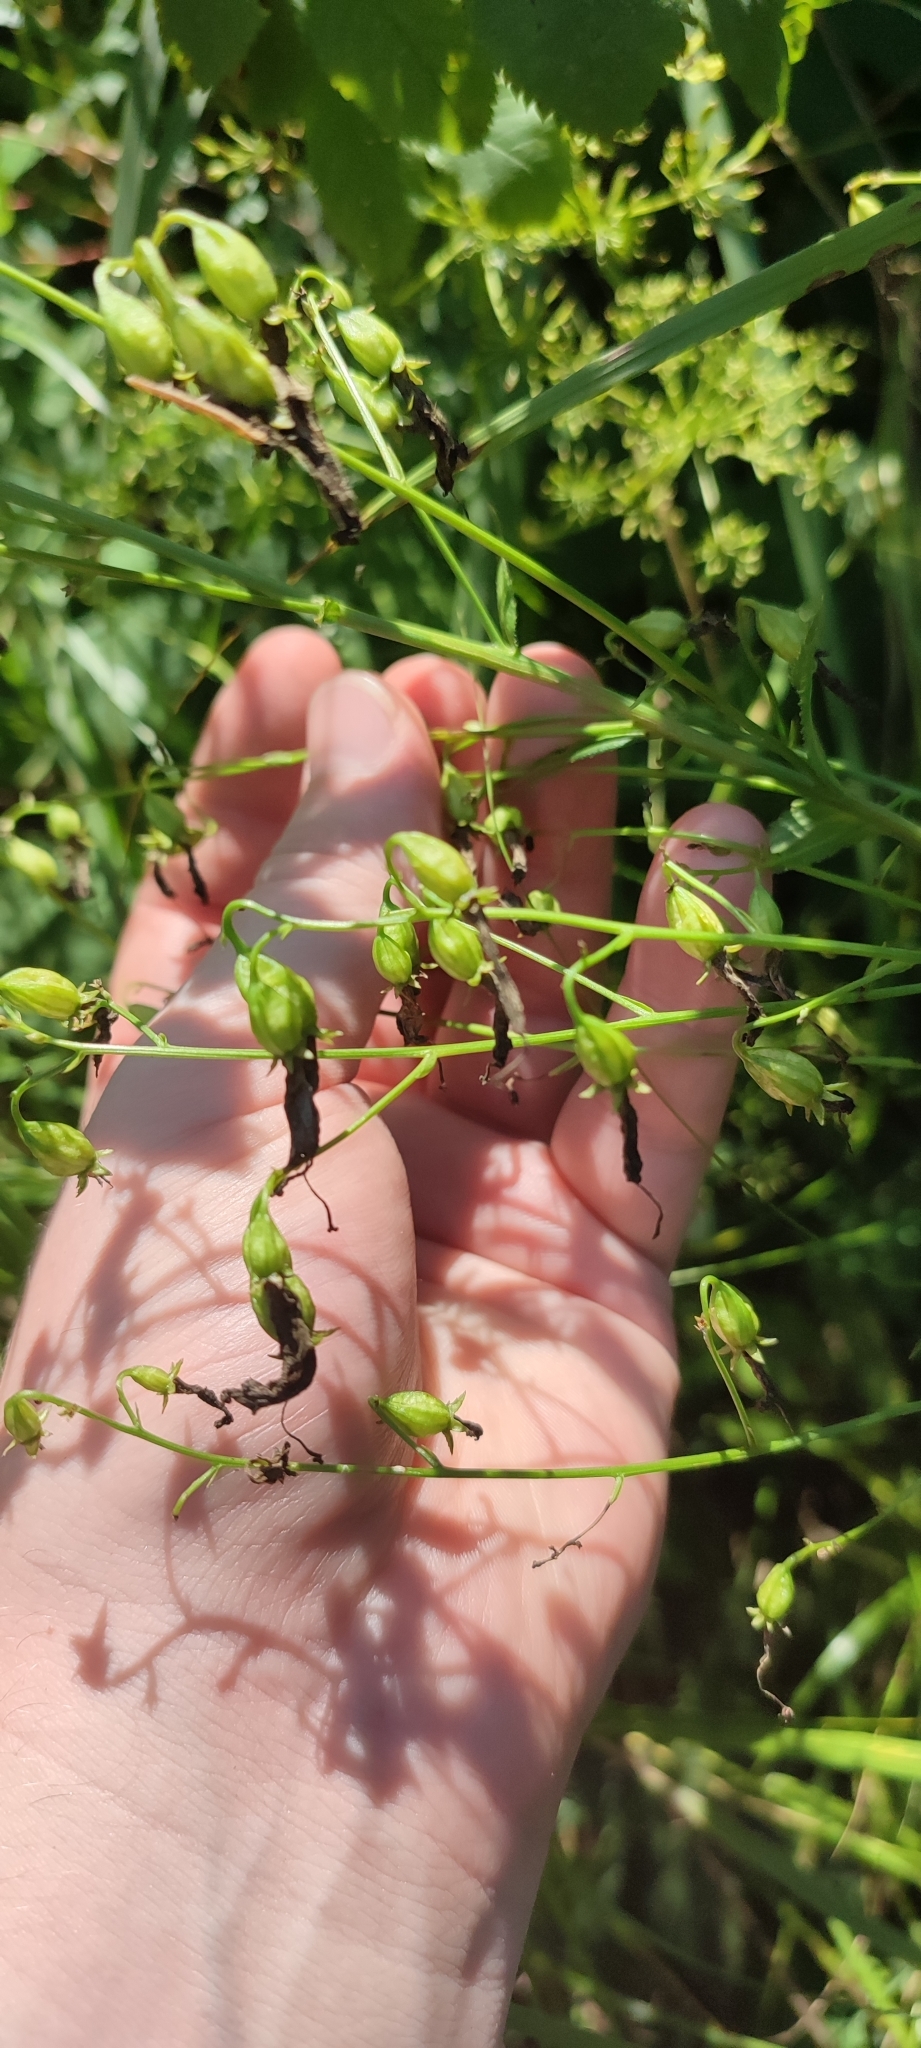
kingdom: Plantae
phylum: Tracheophyta
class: Magnoliopsida
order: Asterales
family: Campanulaceae
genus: Adenophora
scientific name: Adenophora liliifolia
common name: Lilyleaf ladybells
